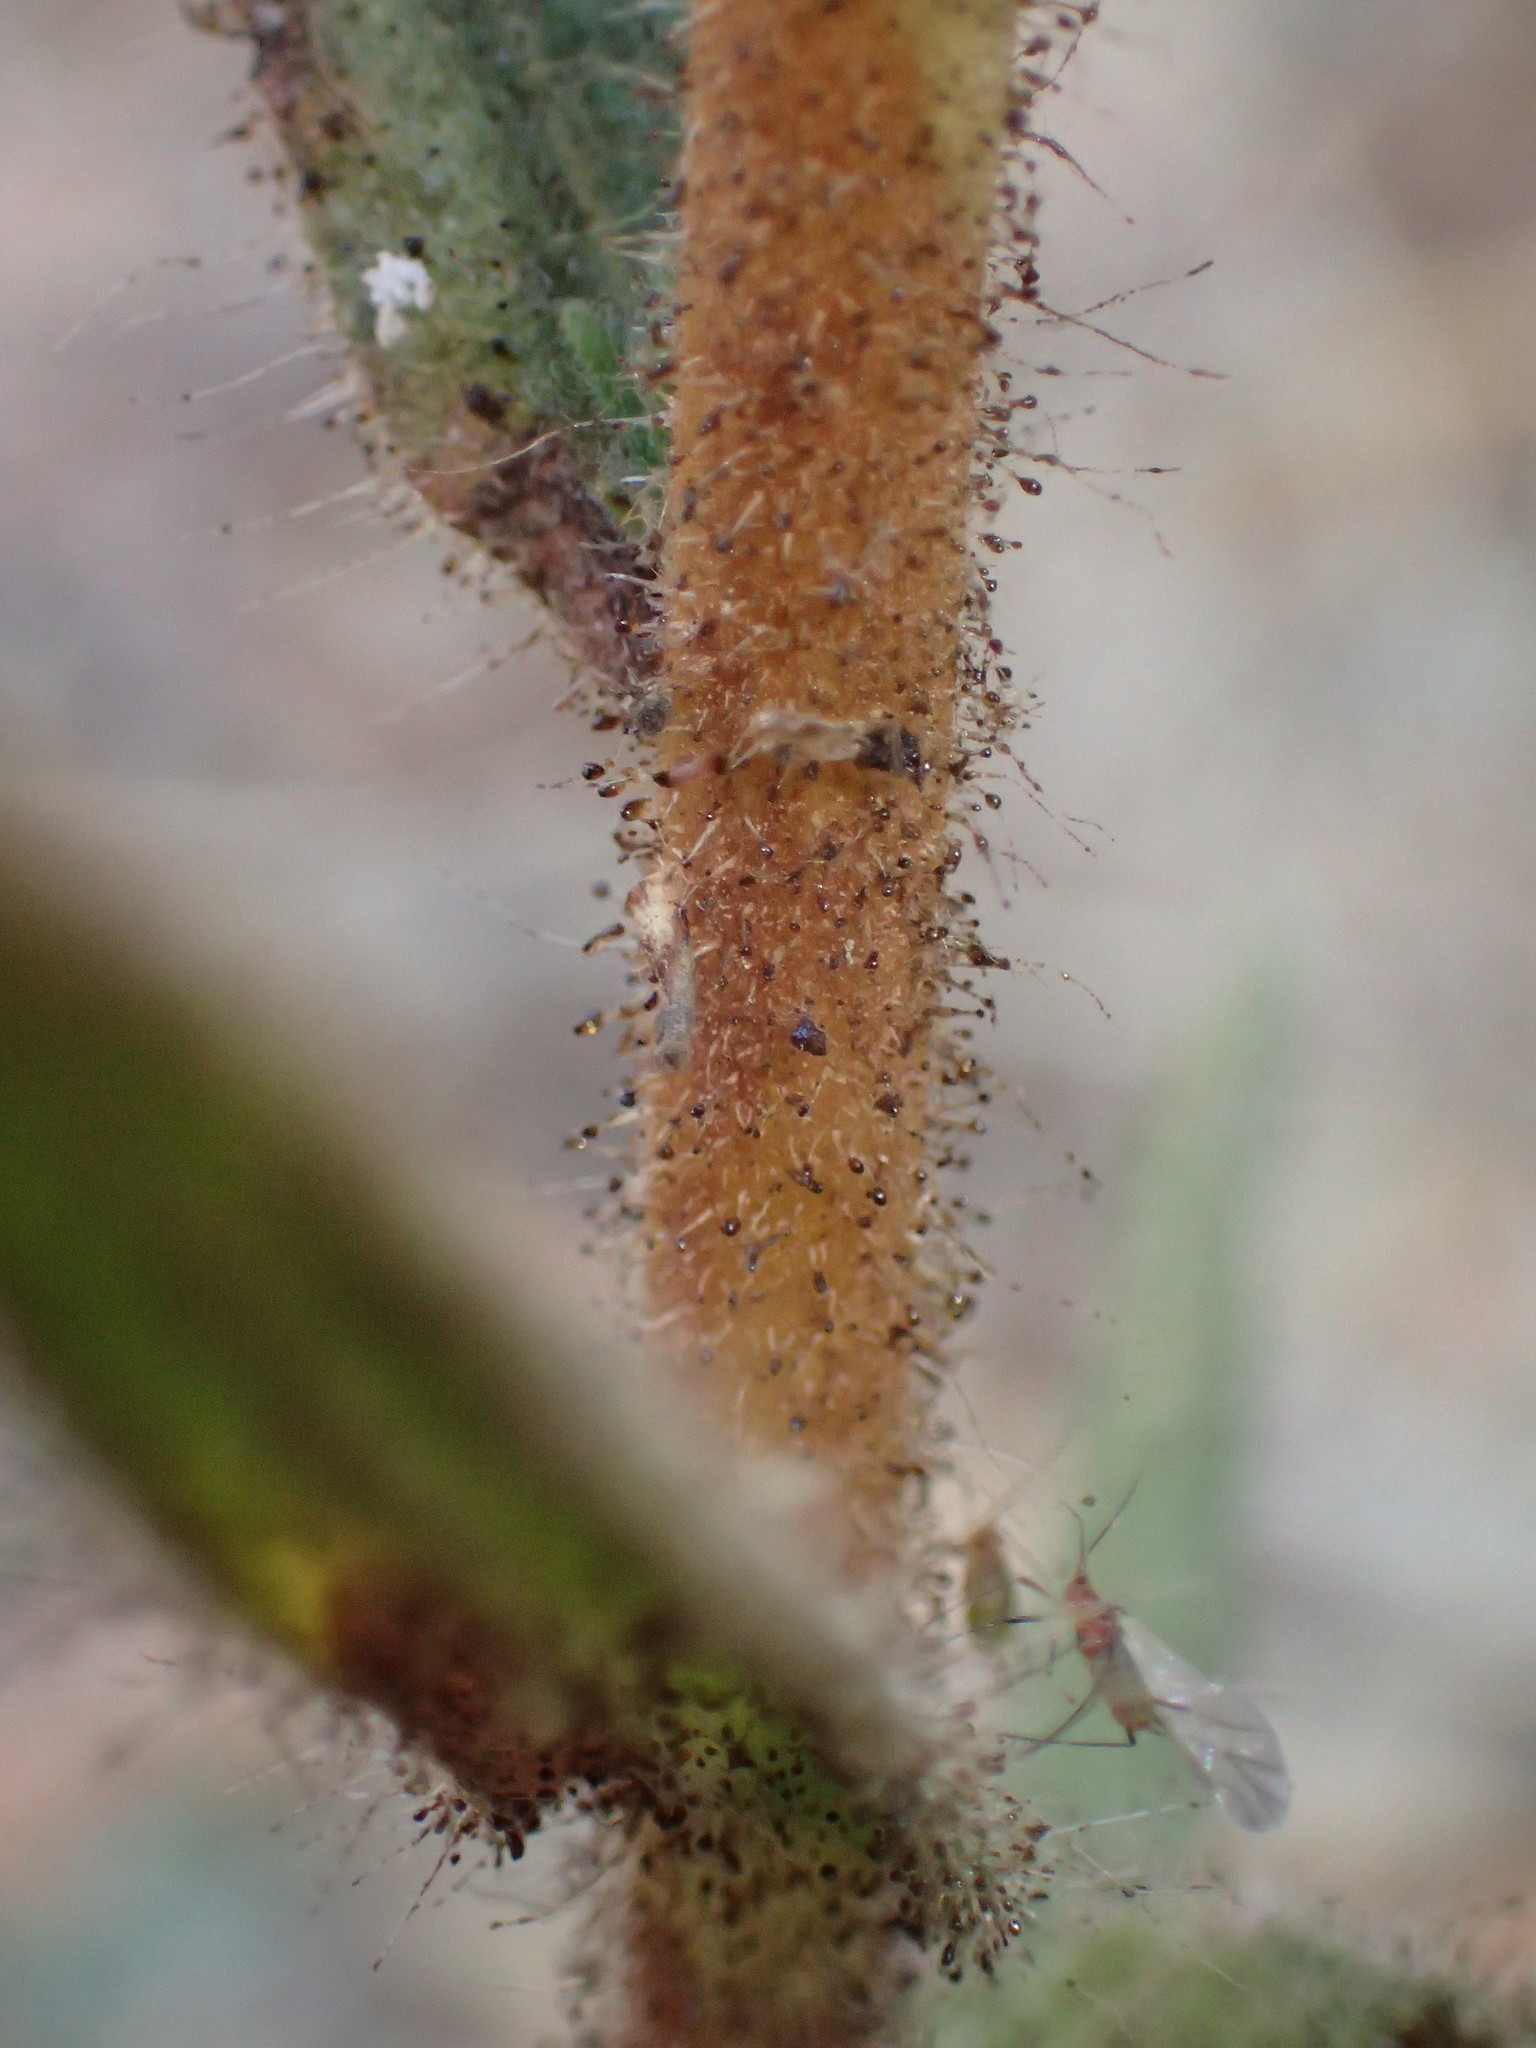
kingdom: Plantae
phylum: Tracheophyta
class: Magnoliopsida
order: Asterales
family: Asteraceae
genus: Madia
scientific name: Madia sativa
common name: Coast tarweed
